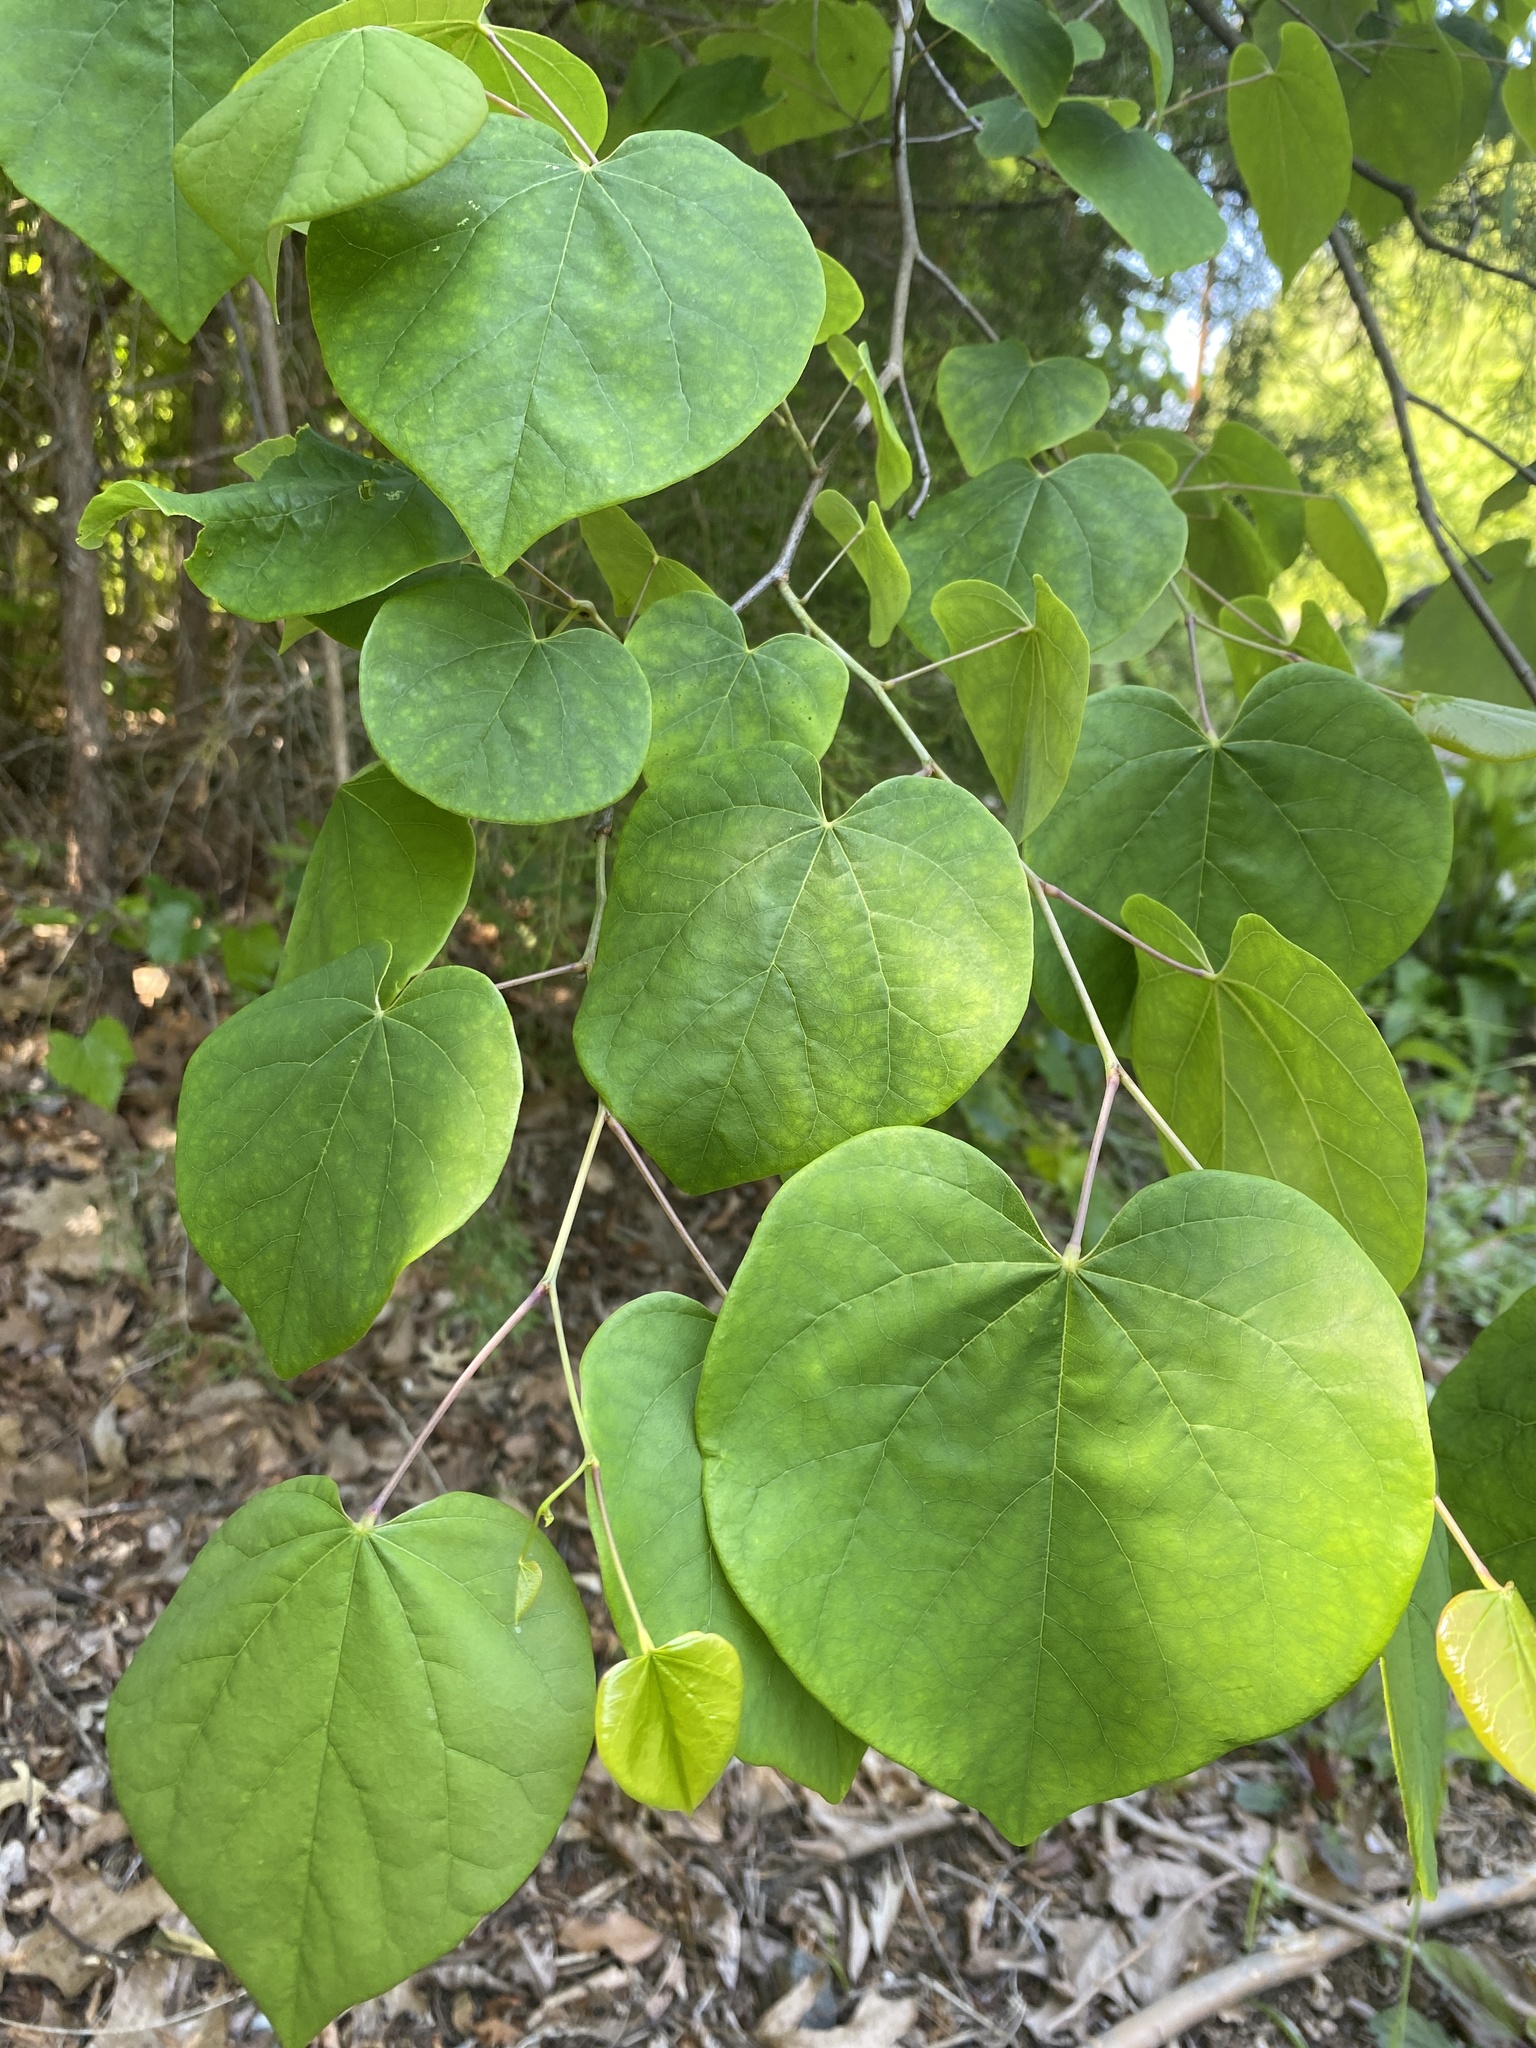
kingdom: Plantae
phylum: Tracheophyta
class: Magnoliopsida
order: Fabales
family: Fabaceae
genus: Cercis
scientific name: Cercis canadensis
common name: Eastern redbud
